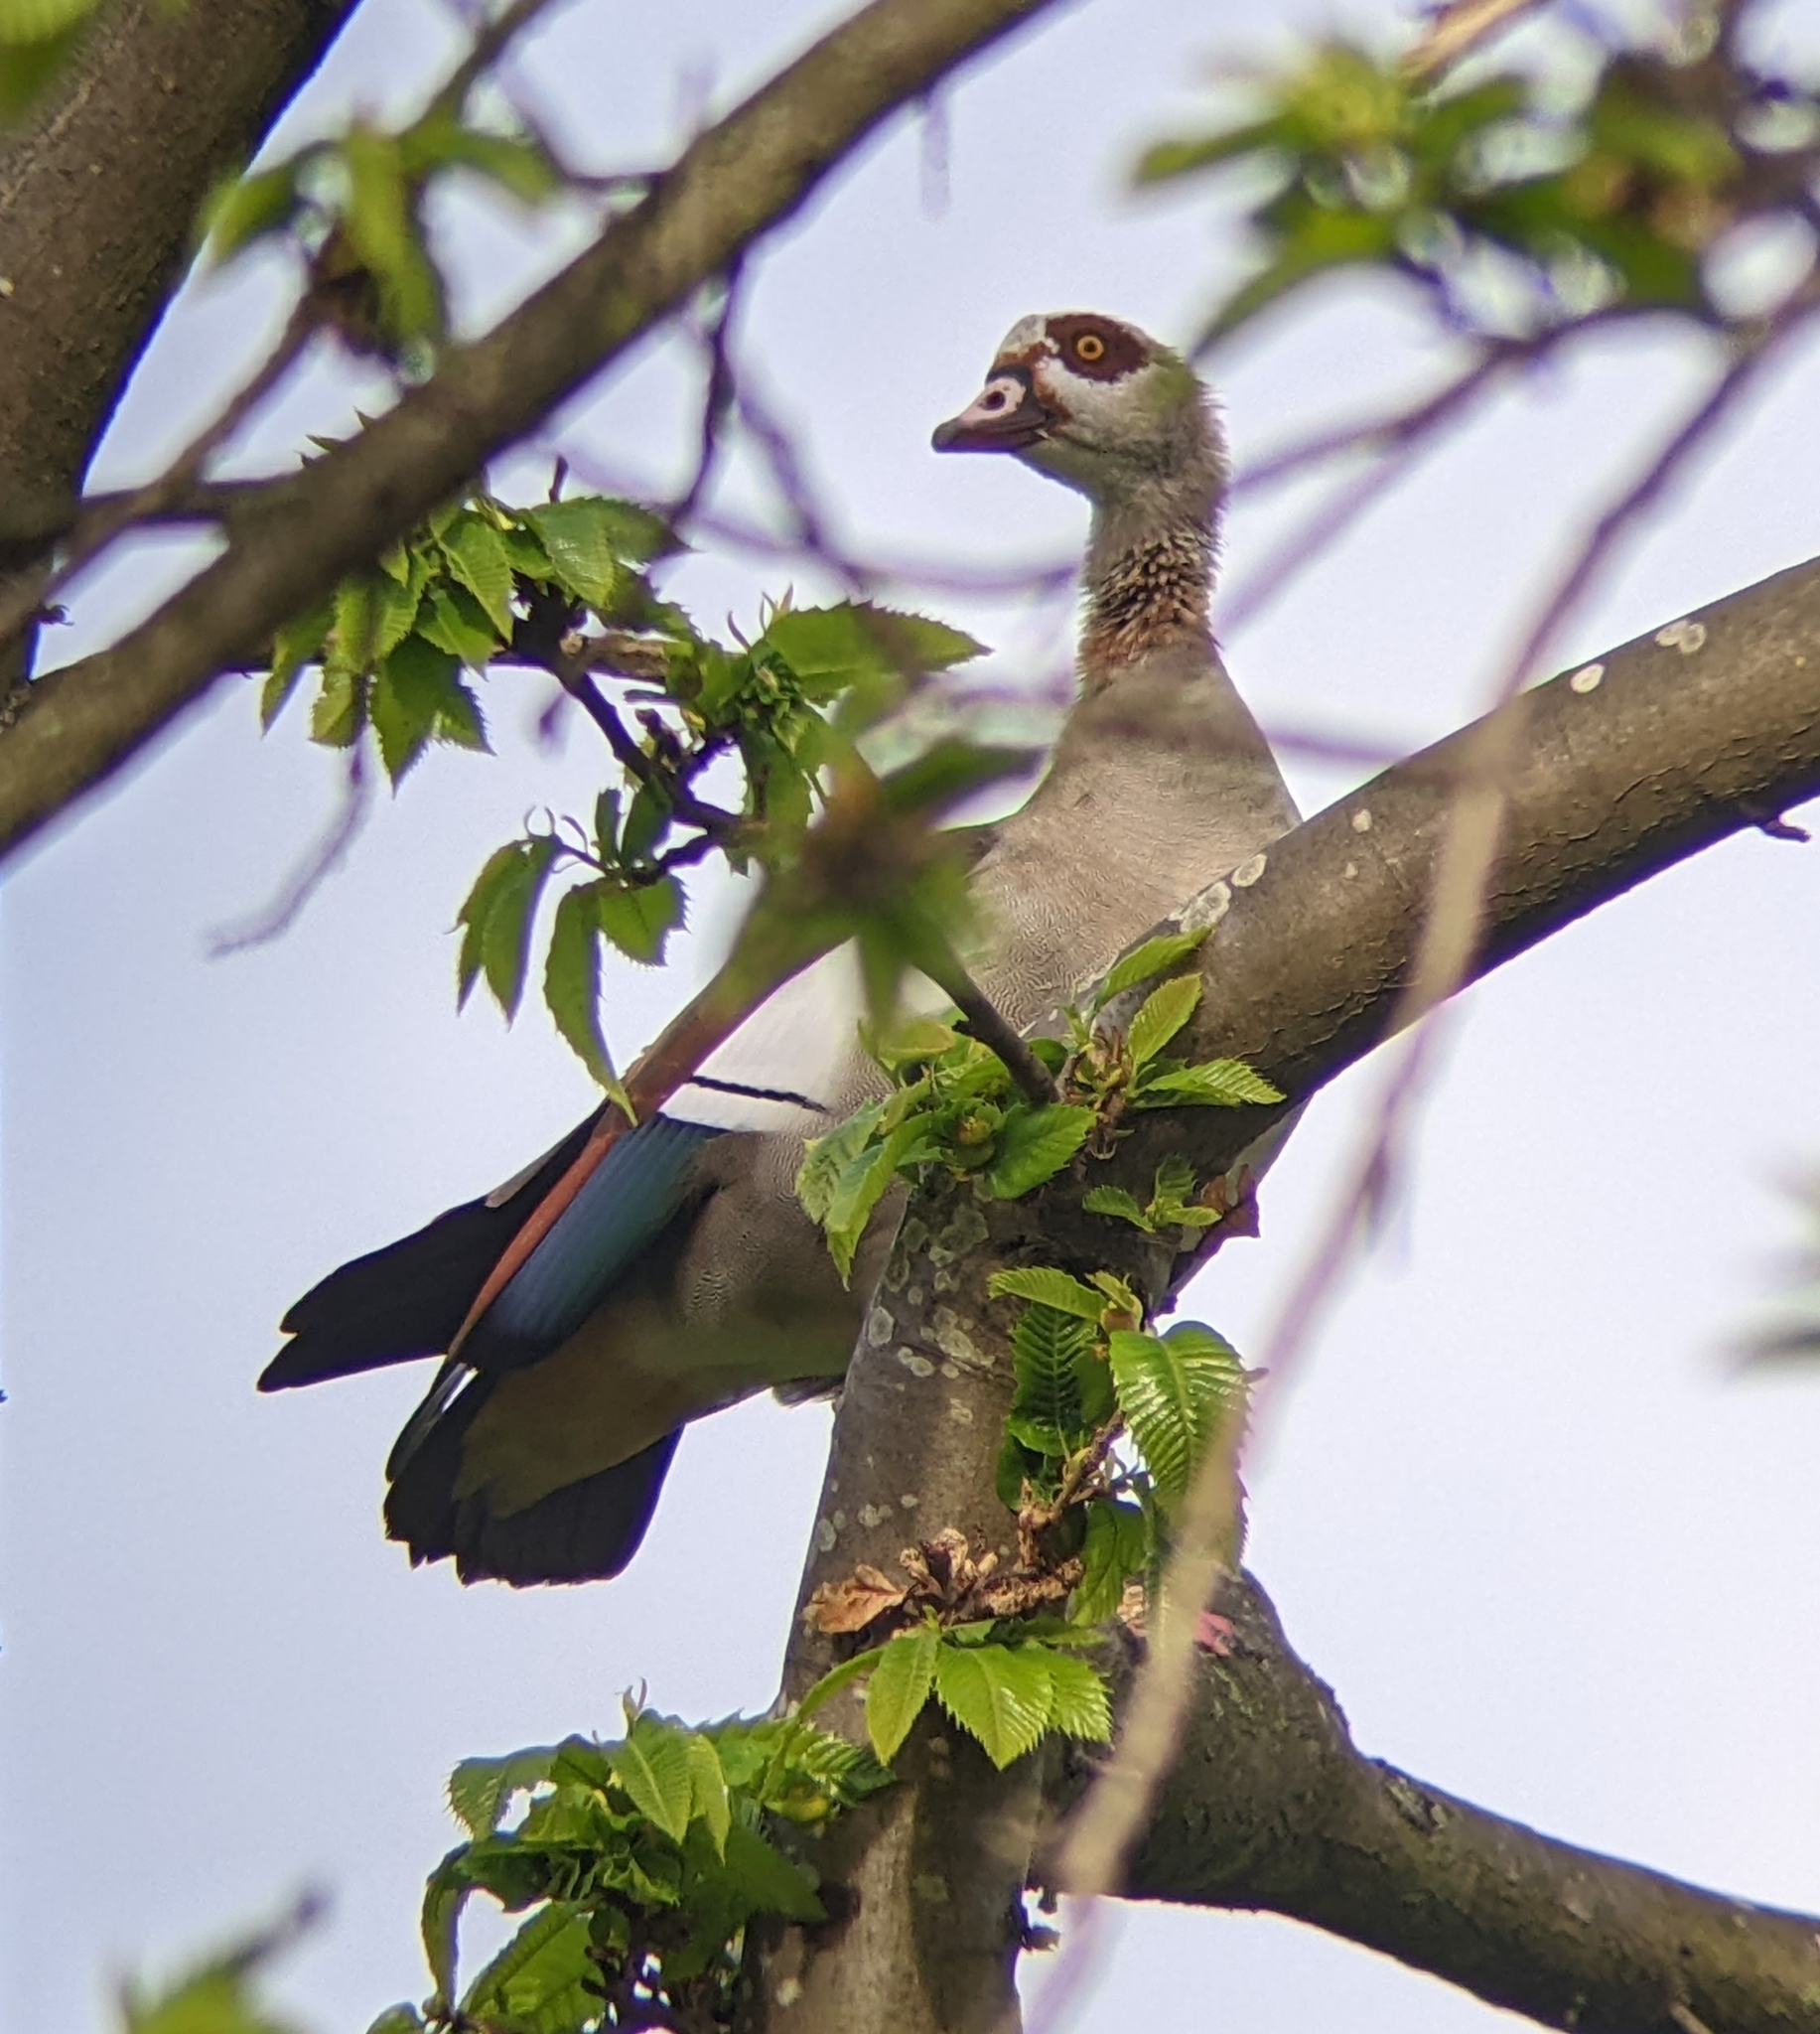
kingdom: Animalia
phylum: Chordata
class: Aves
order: Anseriformes
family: Anatidae
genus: Alopochen
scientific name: Alopochen aegyptiaca
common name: Egyptian goose
